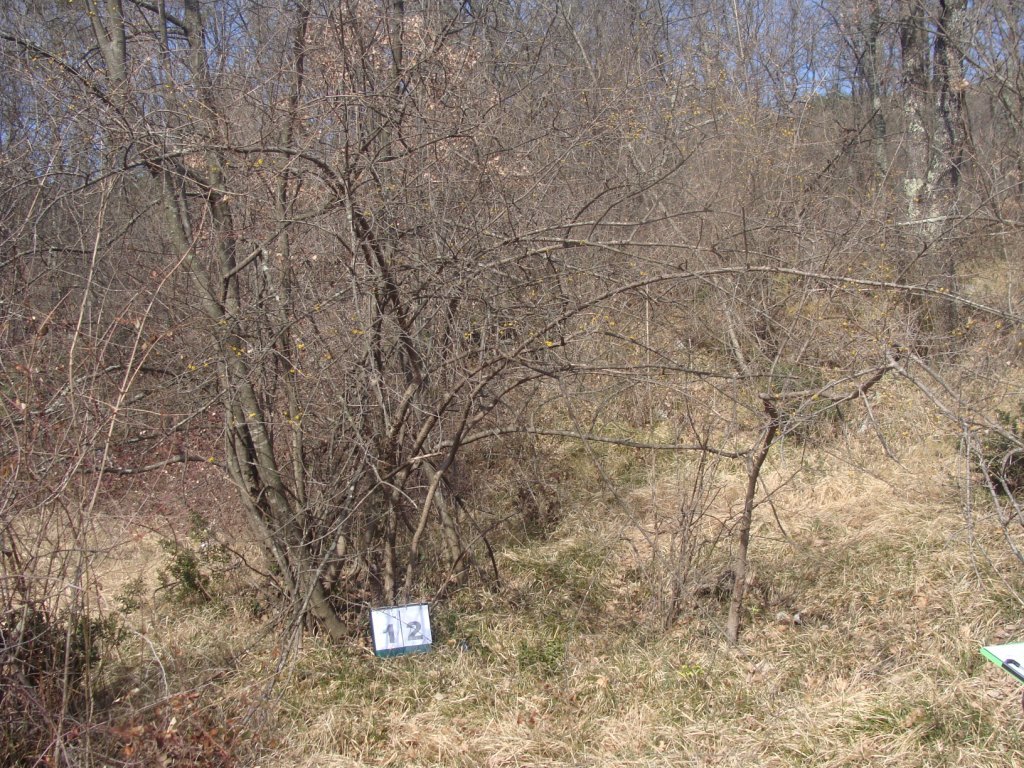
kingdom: Plantae
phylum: Tracheophyta
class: Magnoliopsida
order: Cornales
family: Cornaceae
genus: Cornus
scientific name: Cornus mas
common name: Cornelian-cherry
